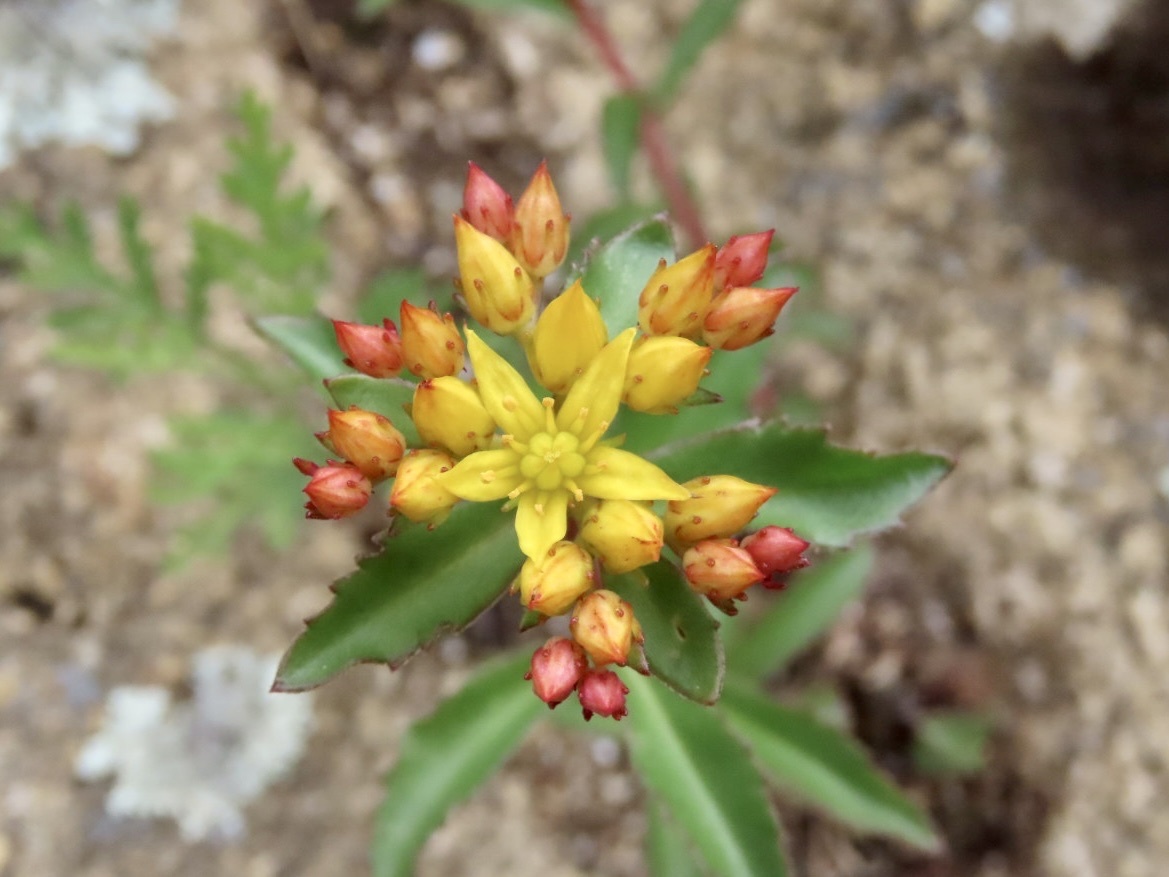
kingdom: Plantae
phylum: Tracheophyta
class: Magnoliopsida
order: Saxifragales
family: Crassulaceae
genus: Phedimus
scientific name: Phedimus aizoon
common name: Orpin aizoon
